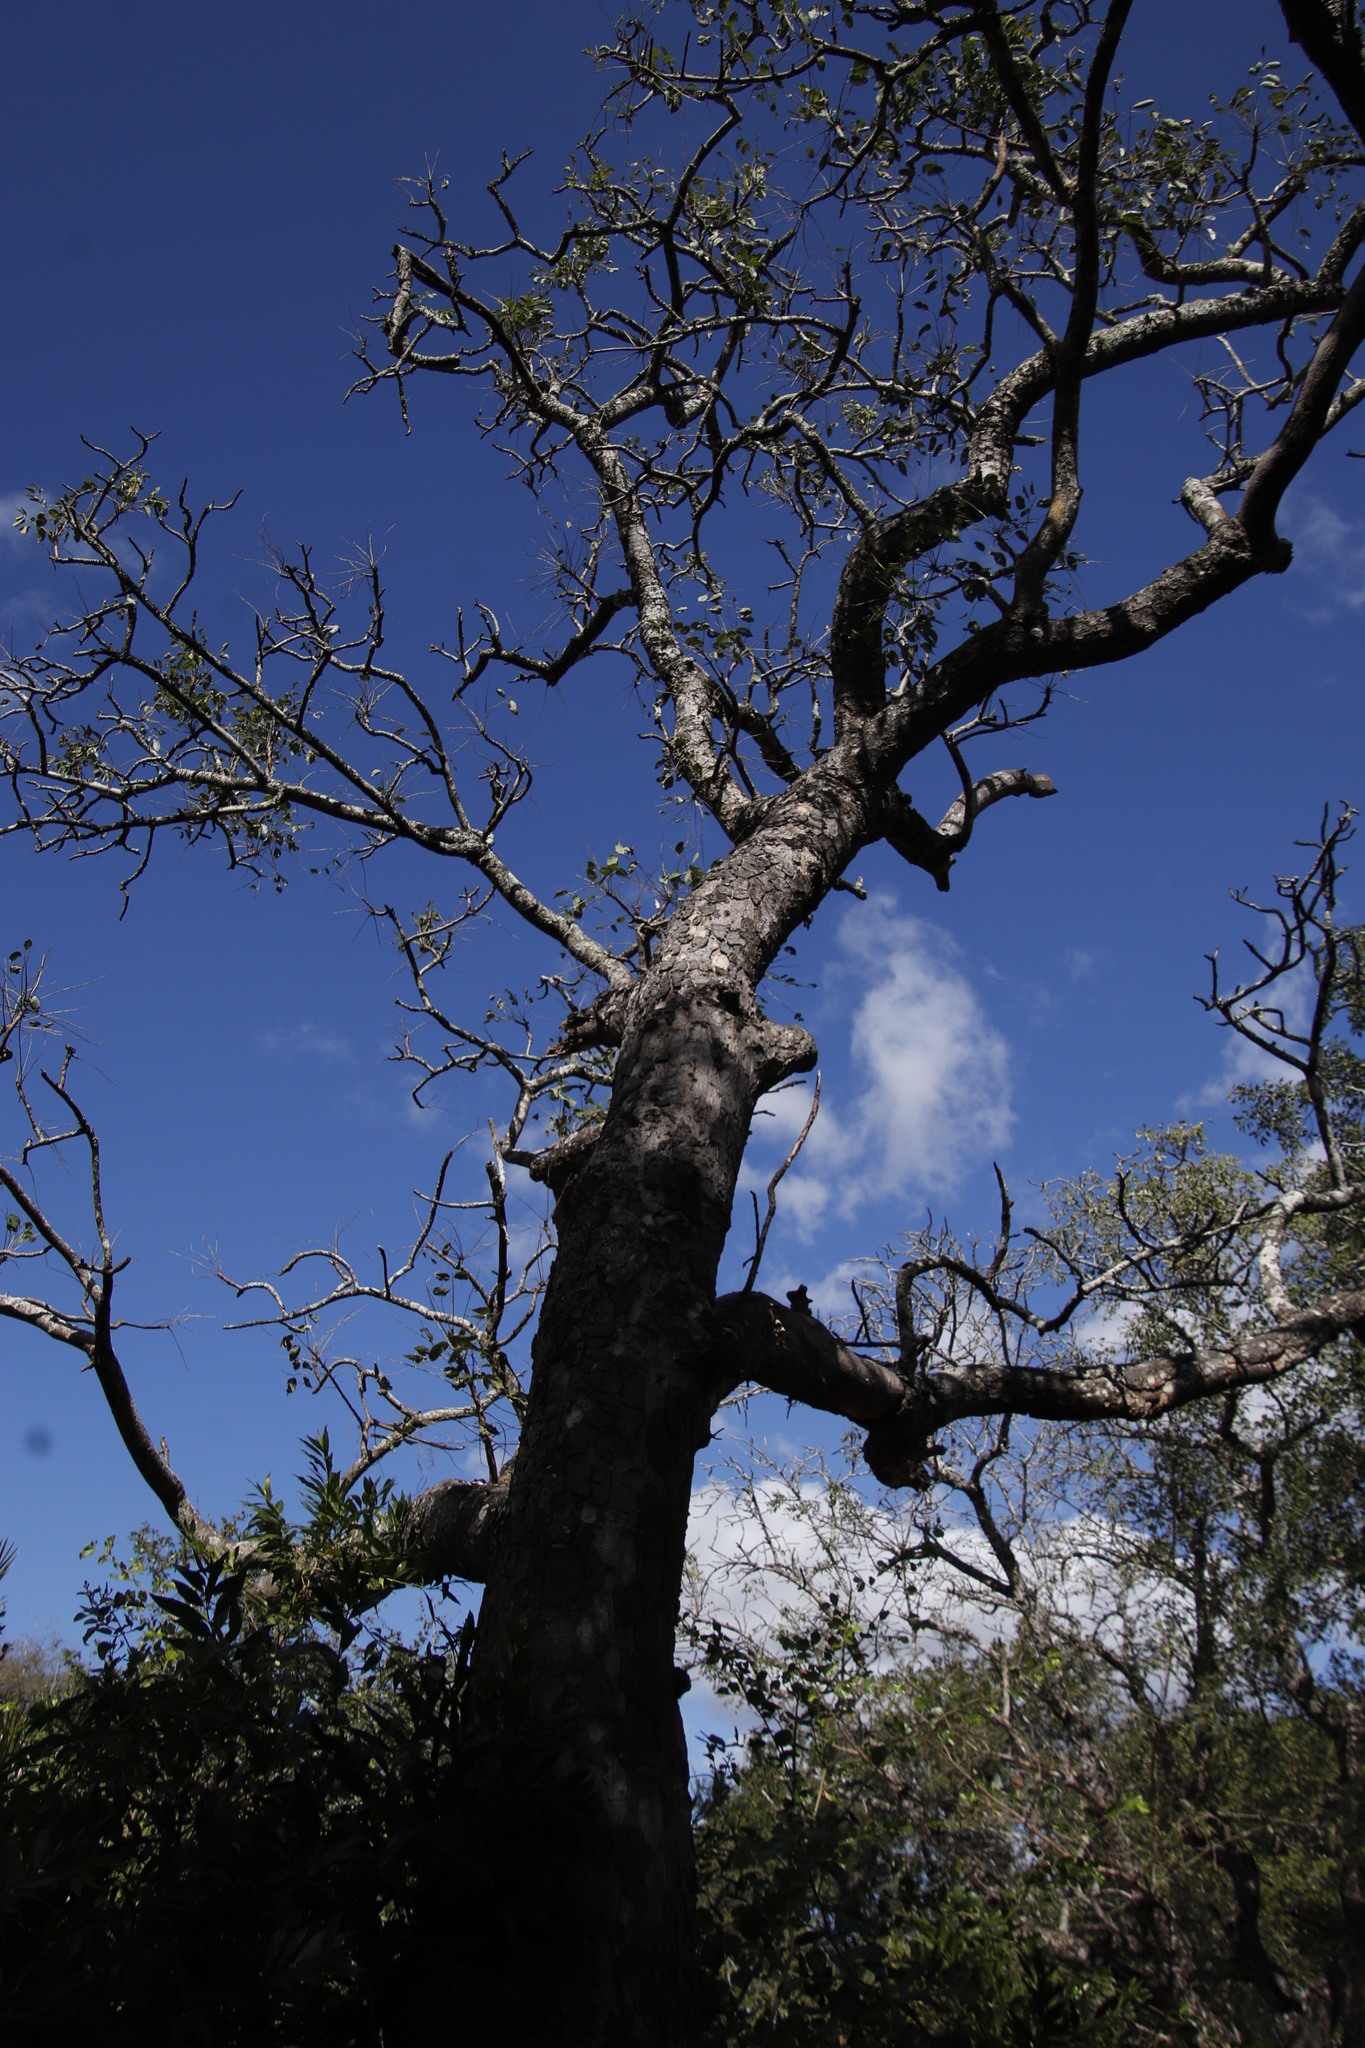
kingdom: Plantae
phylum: Tracheophyta
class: Magnoliopsida
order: Sapindales
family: Anacardiaceae
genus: Sclerocarya
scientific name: Sclerocarya birrea
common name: Marula
